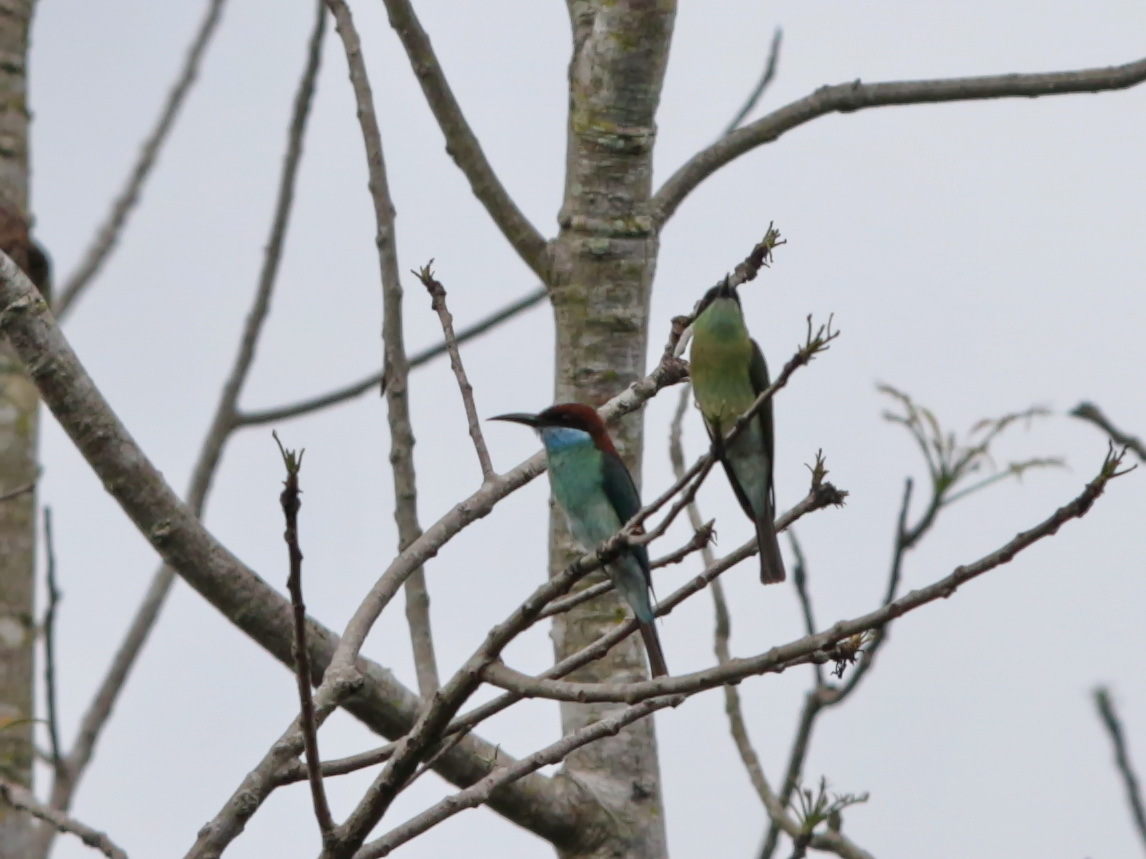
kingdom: Animalia
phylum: Chordata
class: Aves
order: Coraciiformes
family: Meropidae
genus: Merops
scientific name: Merops viridis
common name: Blue-throated bee-eater
